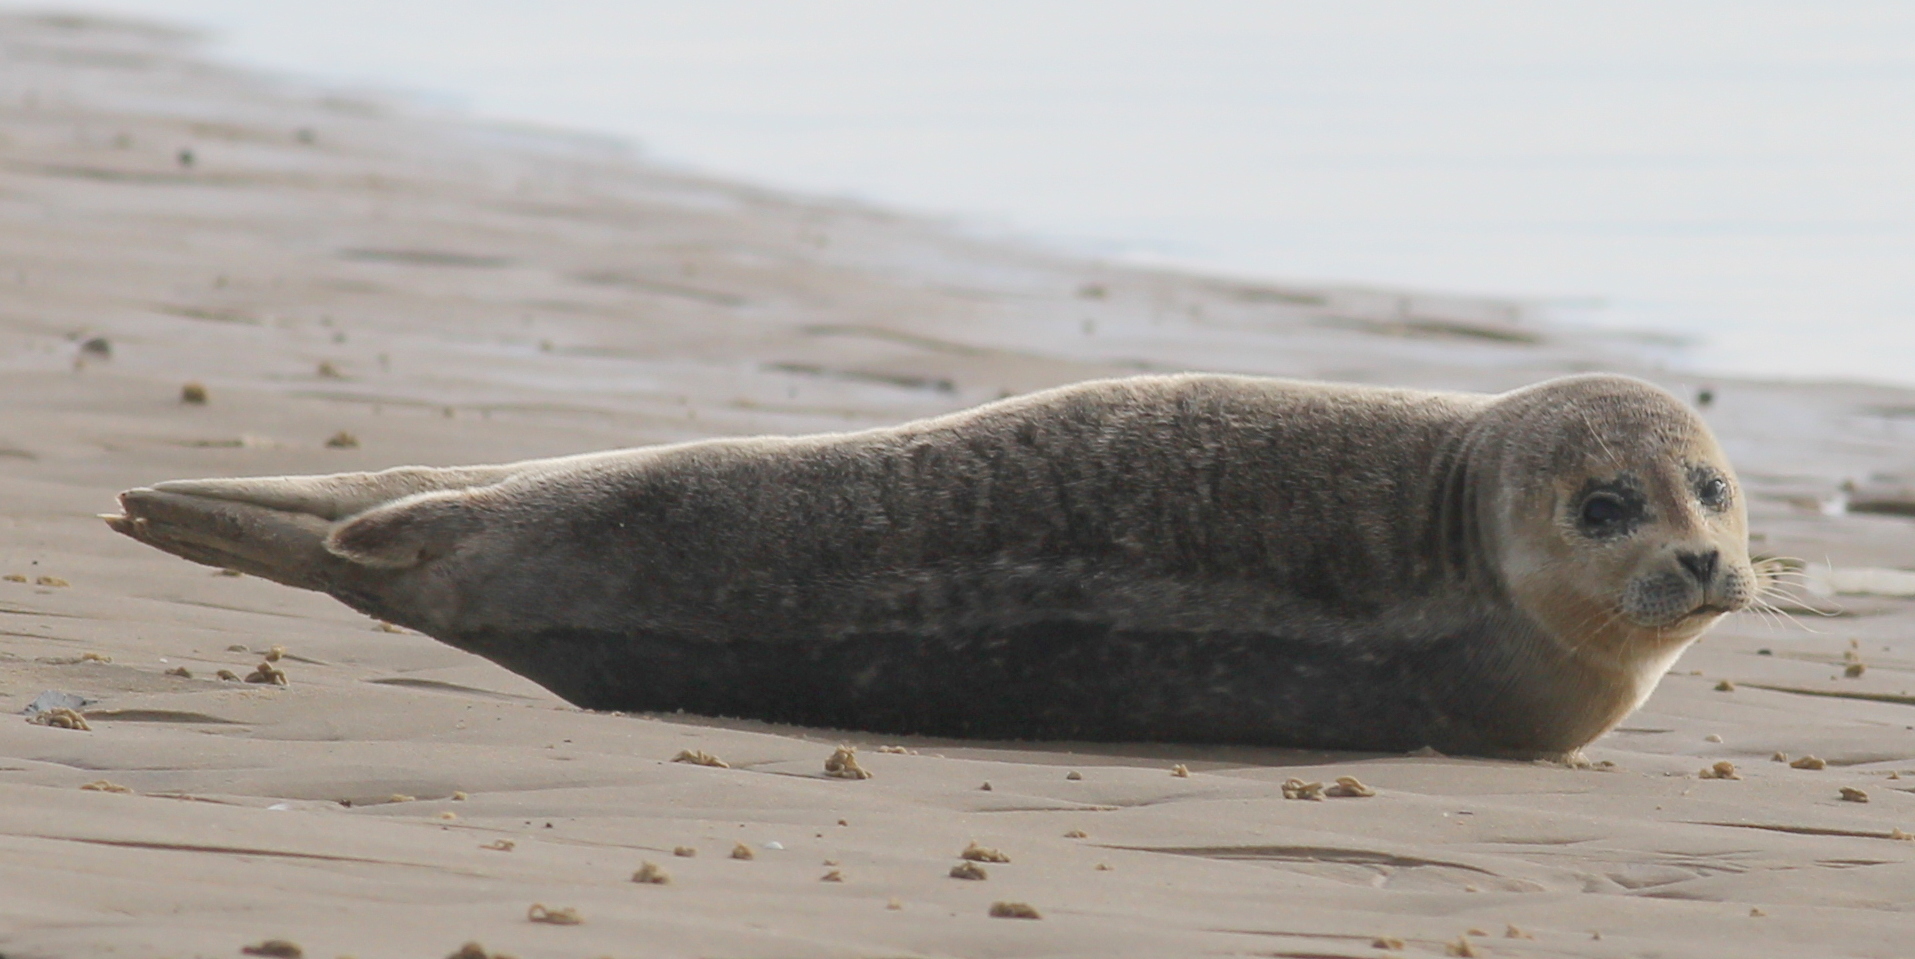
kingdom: Animalia
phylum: Chordata
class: Mammalia
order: Carnivora
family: Phocidae
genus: Phoca
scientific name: Phoca vitulina
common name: Harbor seal
